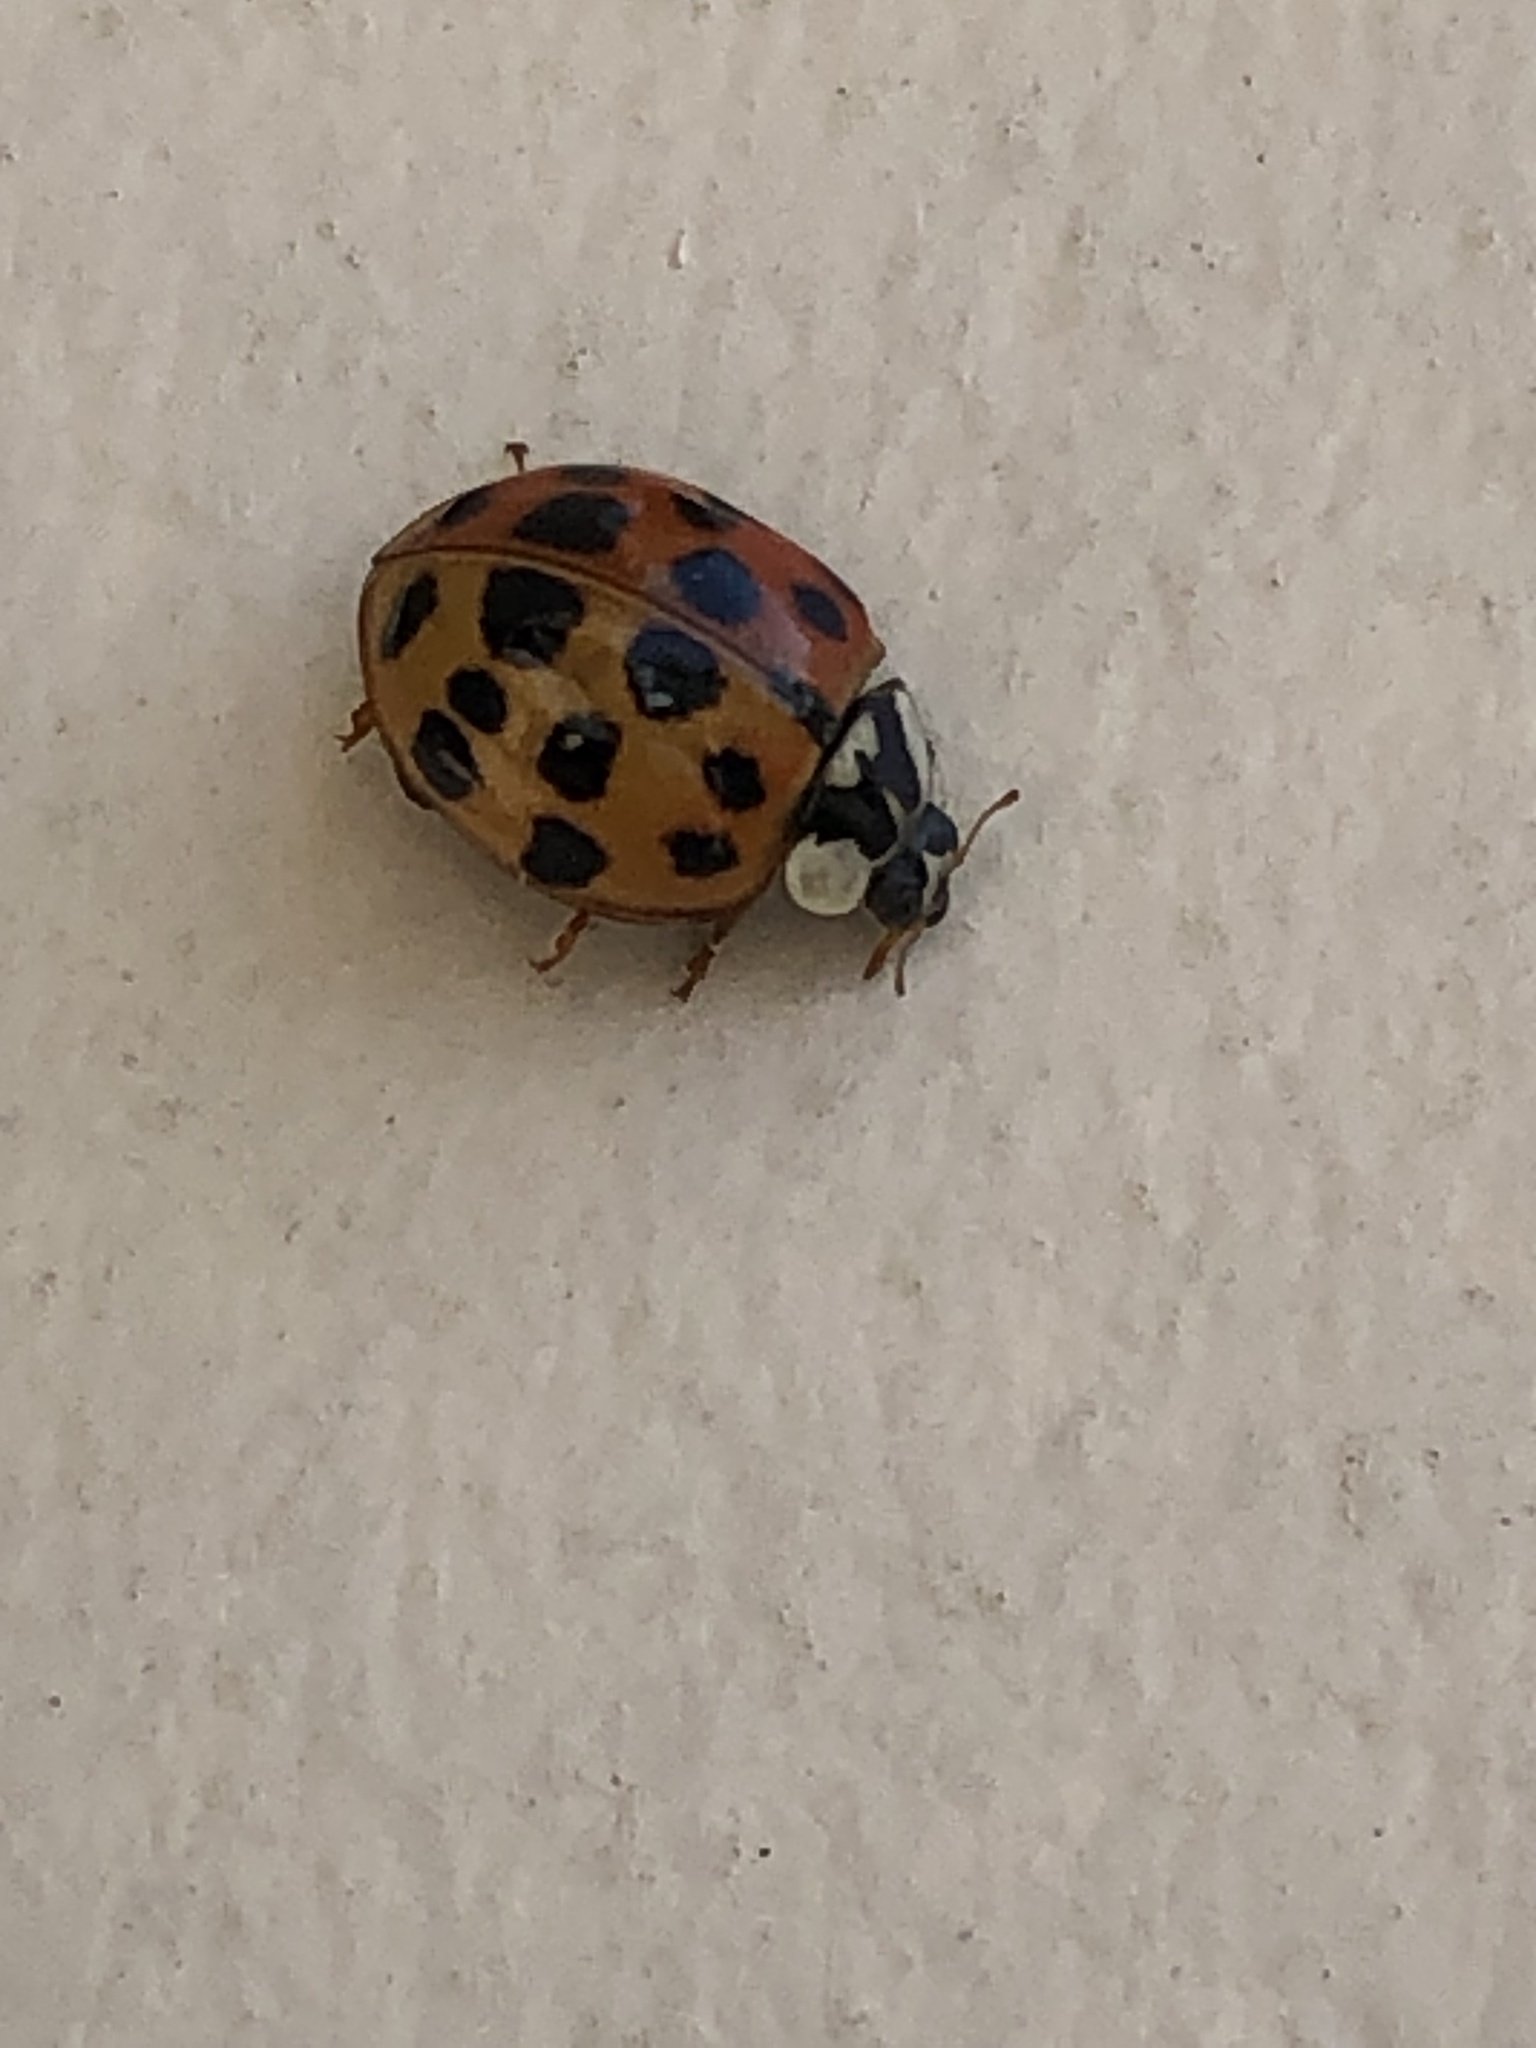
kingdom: Animalia
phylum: Arthropoda
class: Insecta
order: Coleoptera
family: Coccinellidae
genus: Harmonia
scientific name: Harmonia axyridis
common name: Harlequin ladybird
